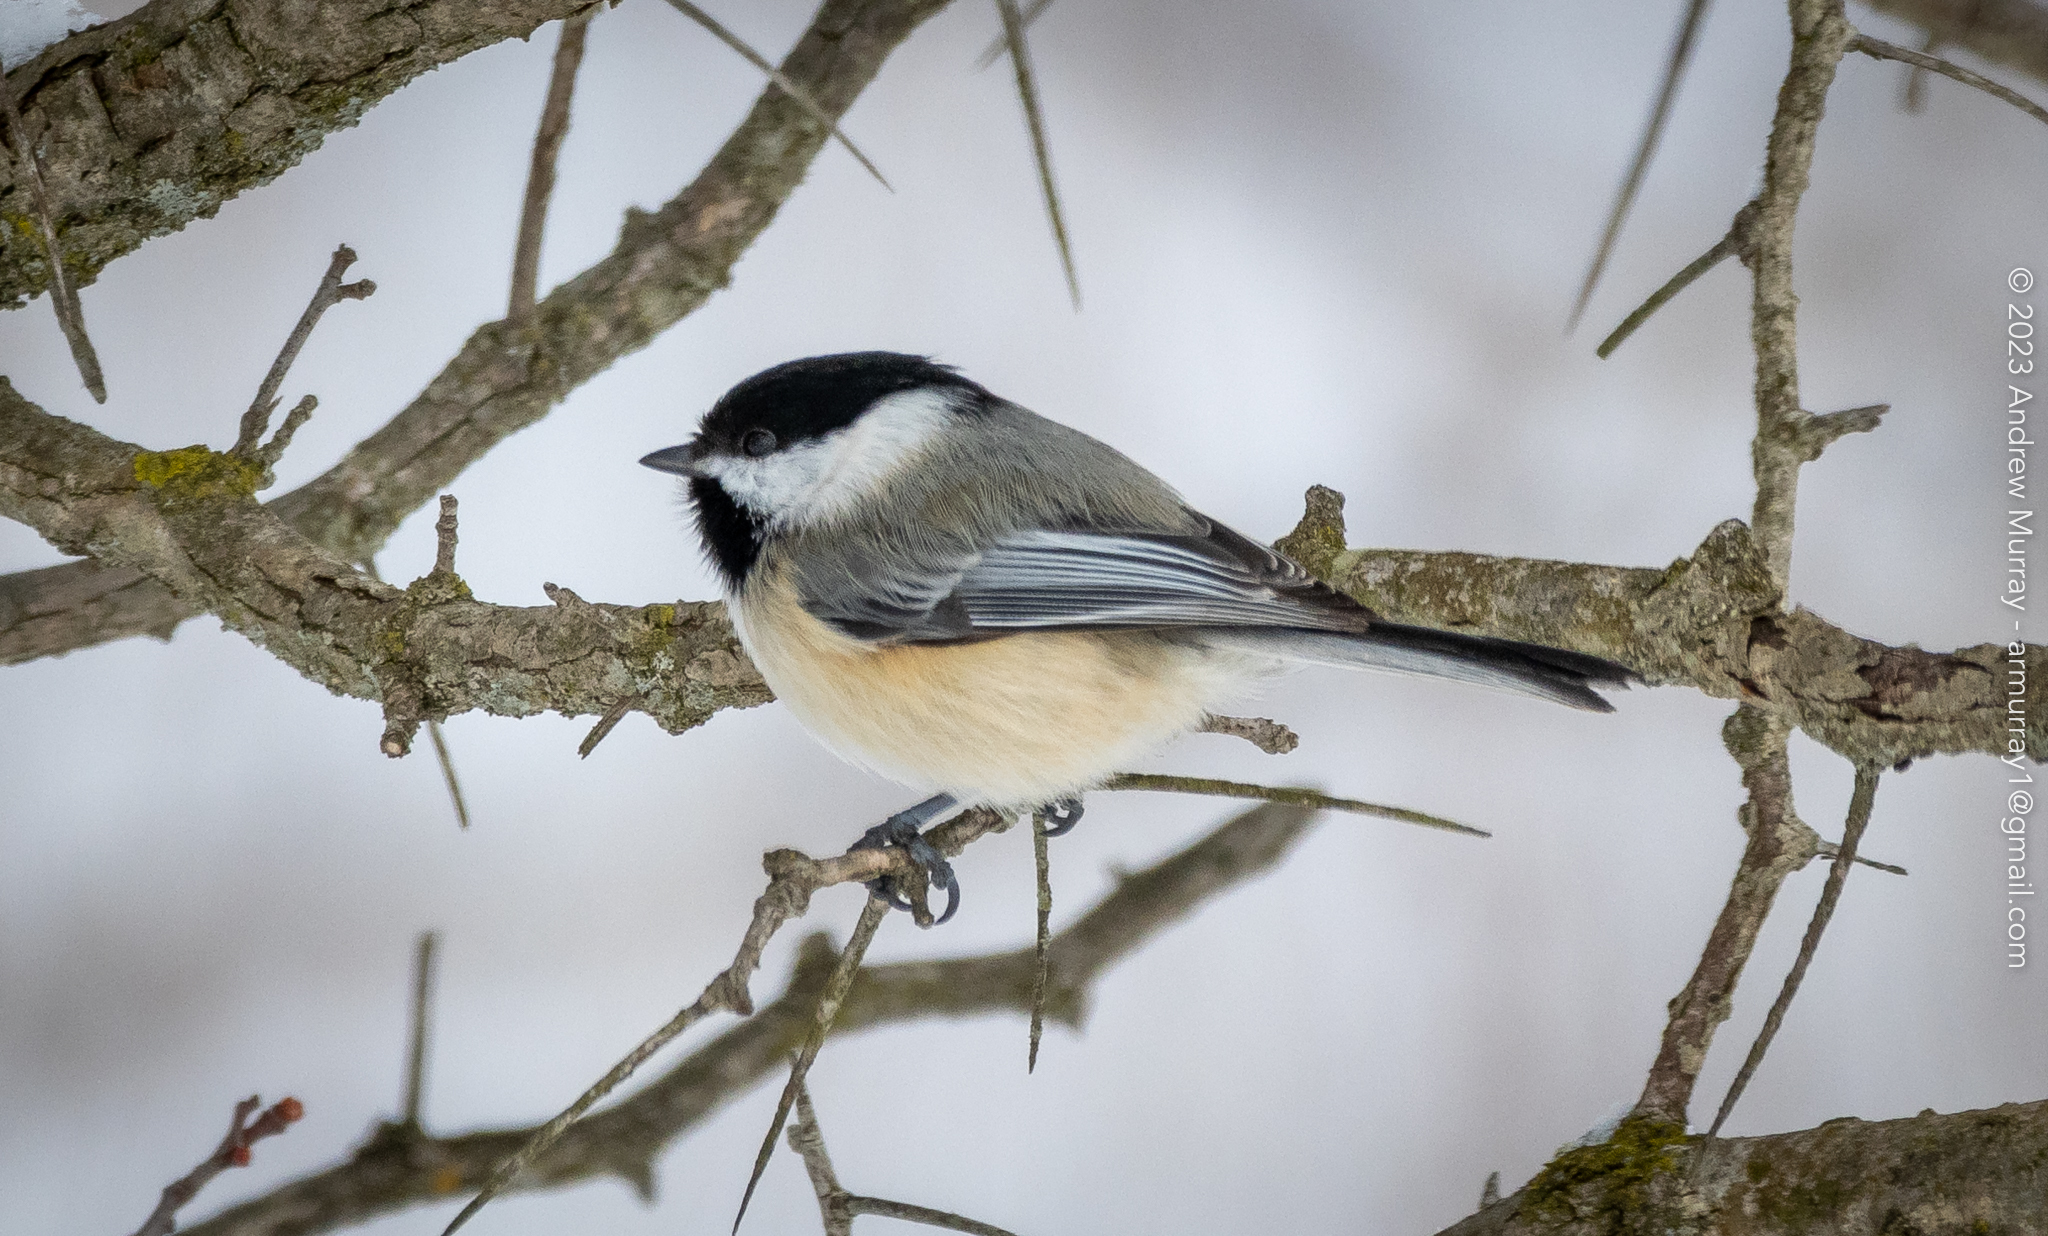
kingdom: Animalia
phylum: Chordata
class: Aves
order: Passeriformes
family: Paridae
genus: Poecile
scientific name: Poecile atricapillus
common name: Black-capped chickadee
